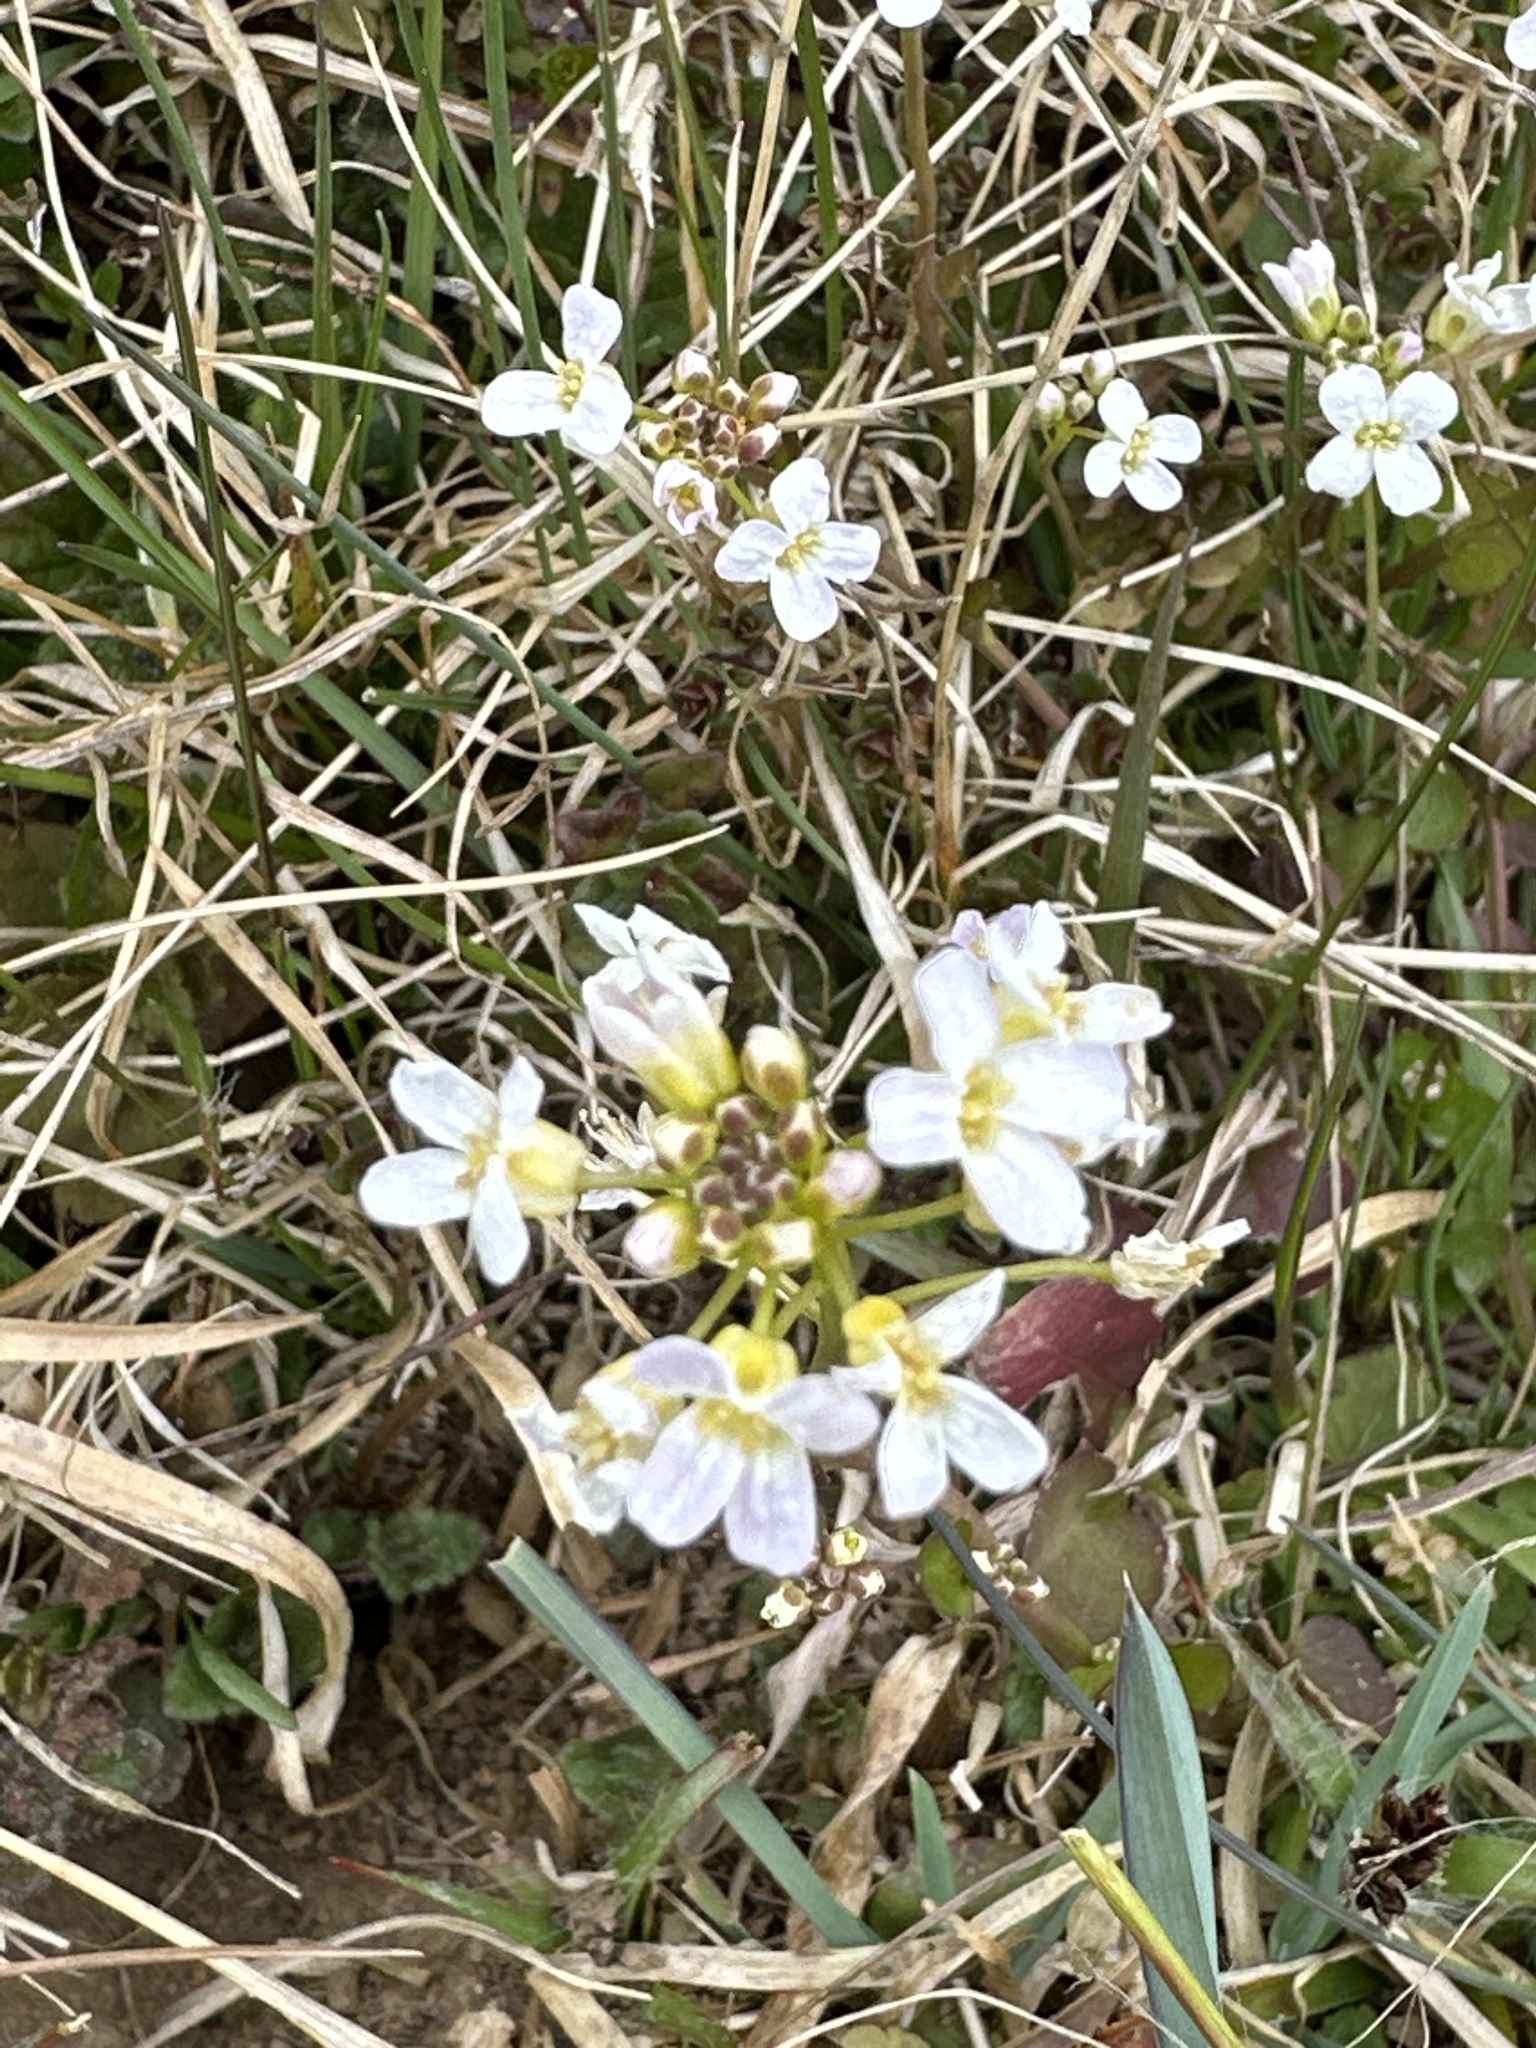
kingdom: Plantae
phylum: Tracheophyta
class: Magnoliopsida
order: Brassicales
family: Brassicaceae
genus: Cardamine
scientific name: Cardamine pratensis
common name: Cuckoo flower
